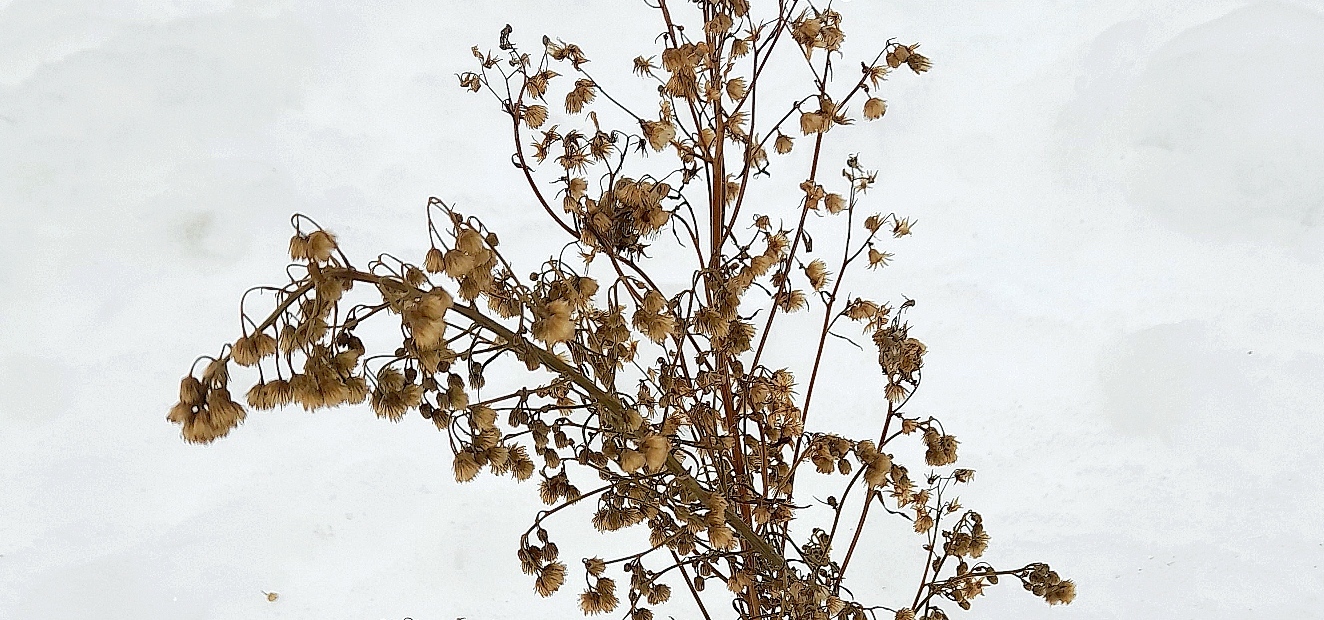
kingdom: Plantae
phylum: Tracheophyta
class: Magnoliopsida
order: Asterales
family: Asteraceae
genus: Erigeron
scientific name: Erigeron canadensis
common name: Canadian fleabane
